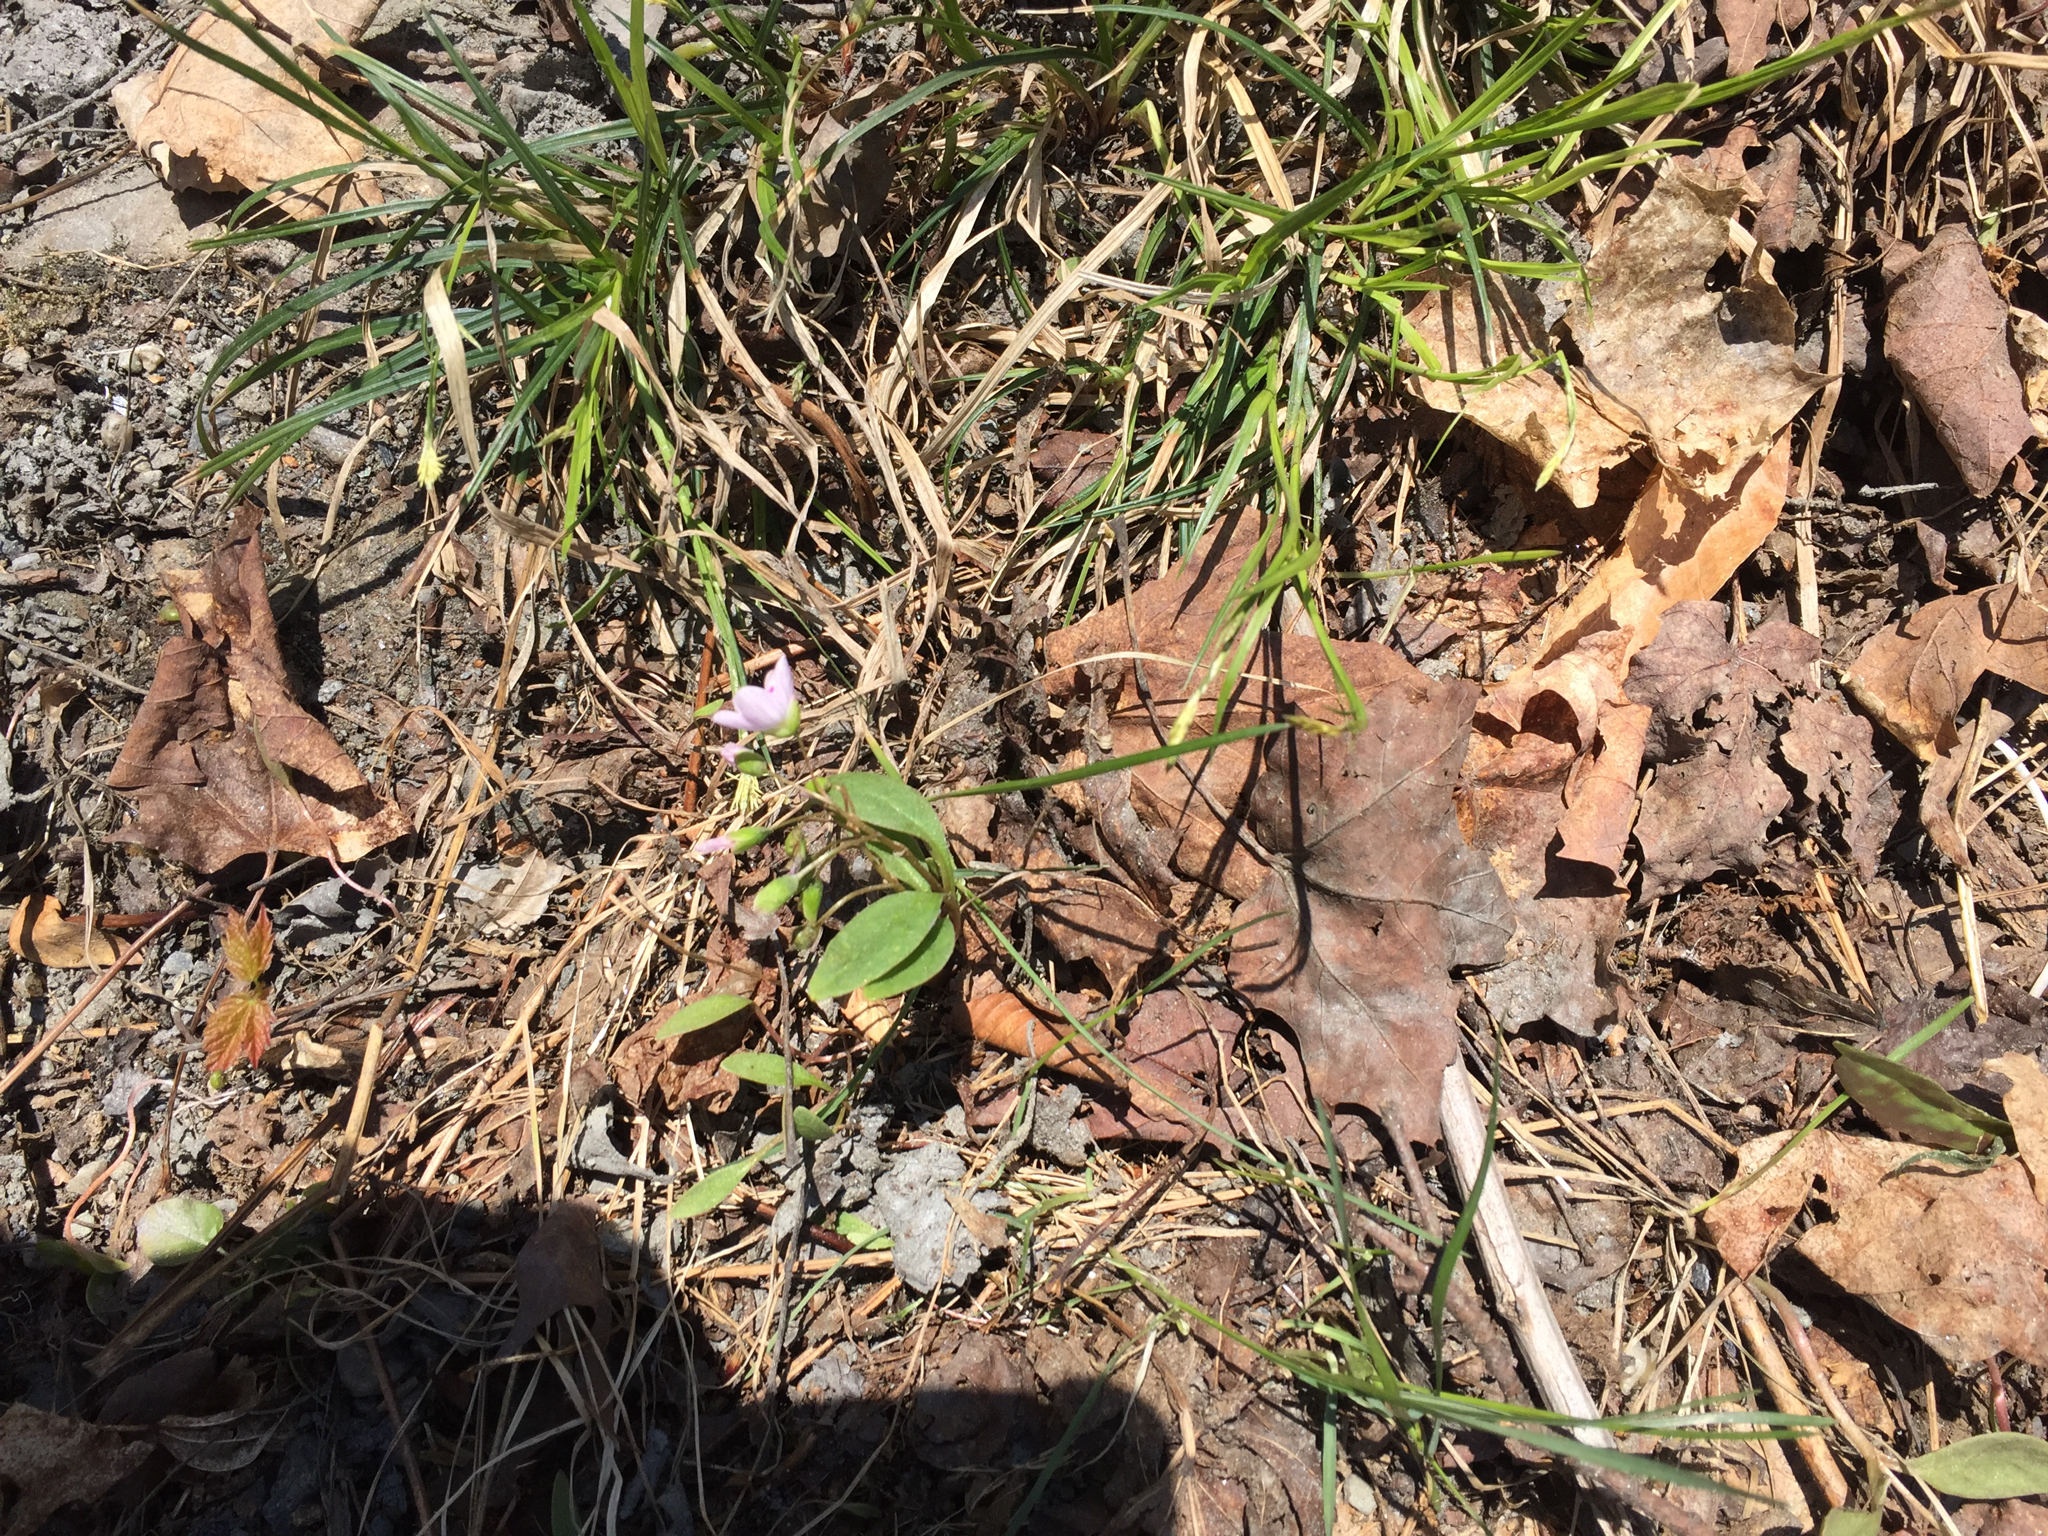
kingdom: Plantae
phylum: Tracheophyta
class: Magnoliopsida
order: Caryophyllales
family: Montiaceae
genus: Claytonia
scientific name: Claytonia caroliniana
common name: Carolina spring beauty
